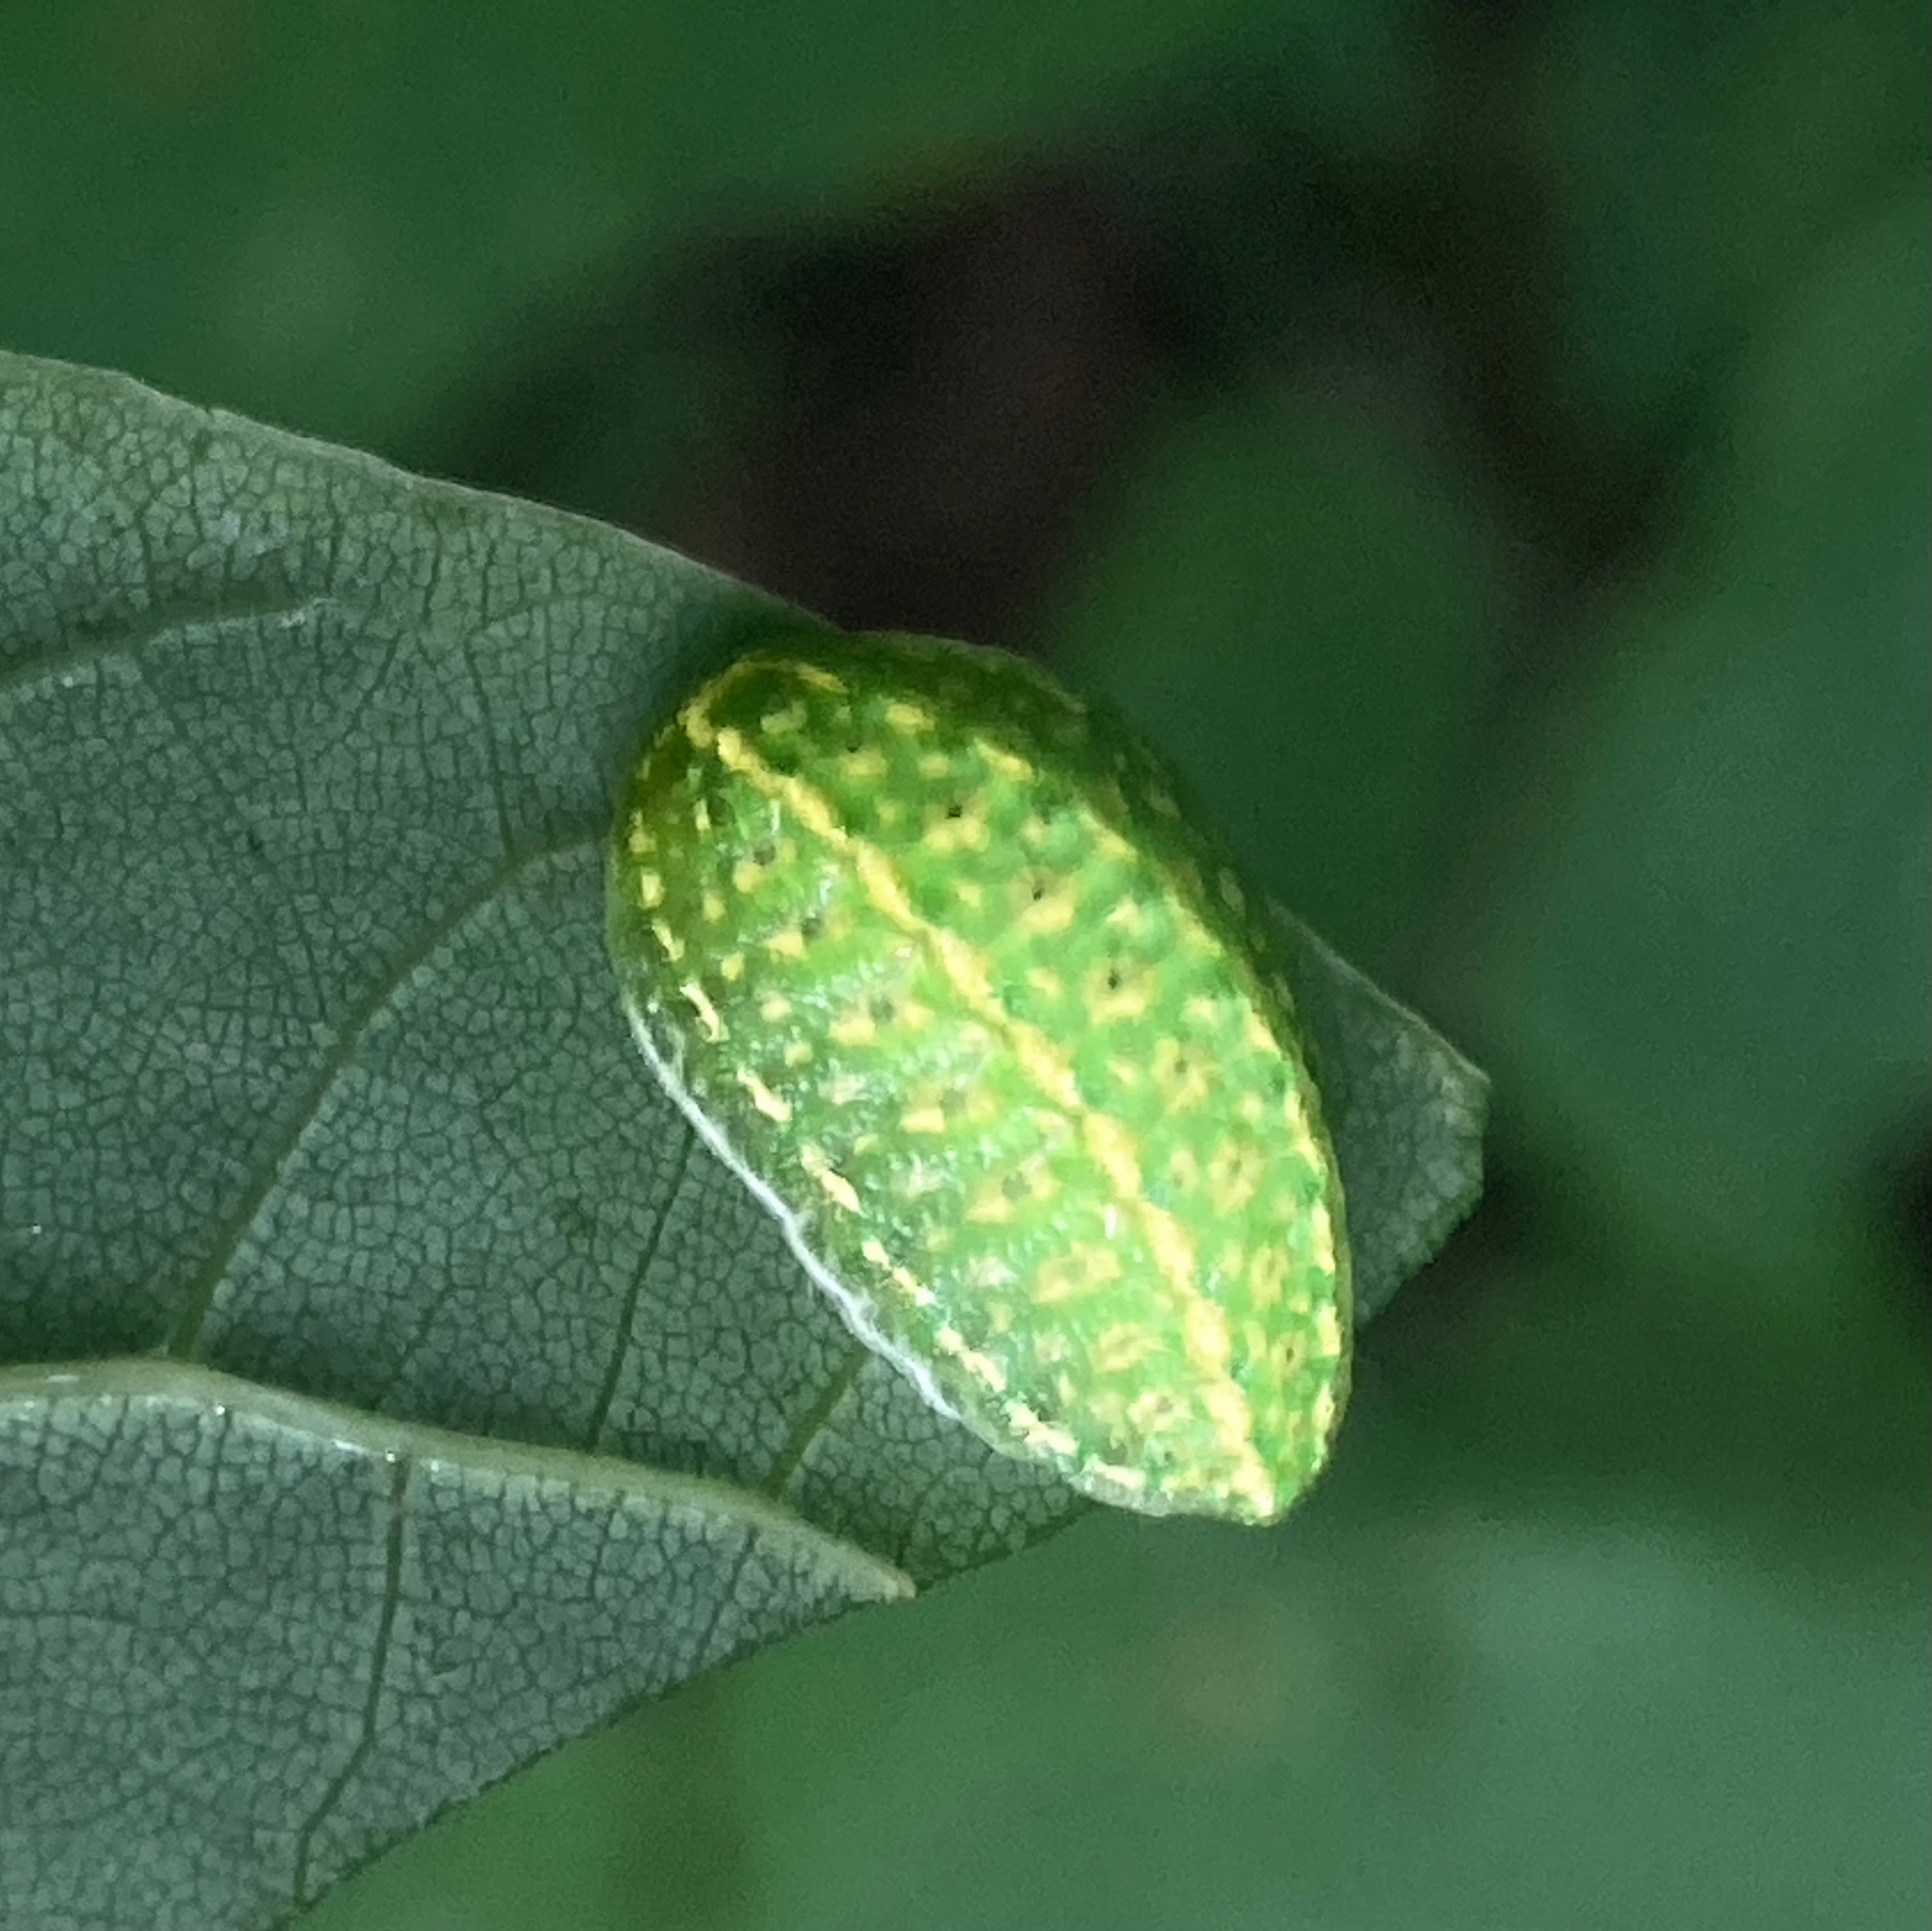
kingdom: Animalia
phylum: Arthropoda
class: Insecta
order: Lepidoptera
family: Limacodidae
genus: Lithacodes
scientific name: Lithacodes fasciola
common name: Yellow-shouldered slug moth
